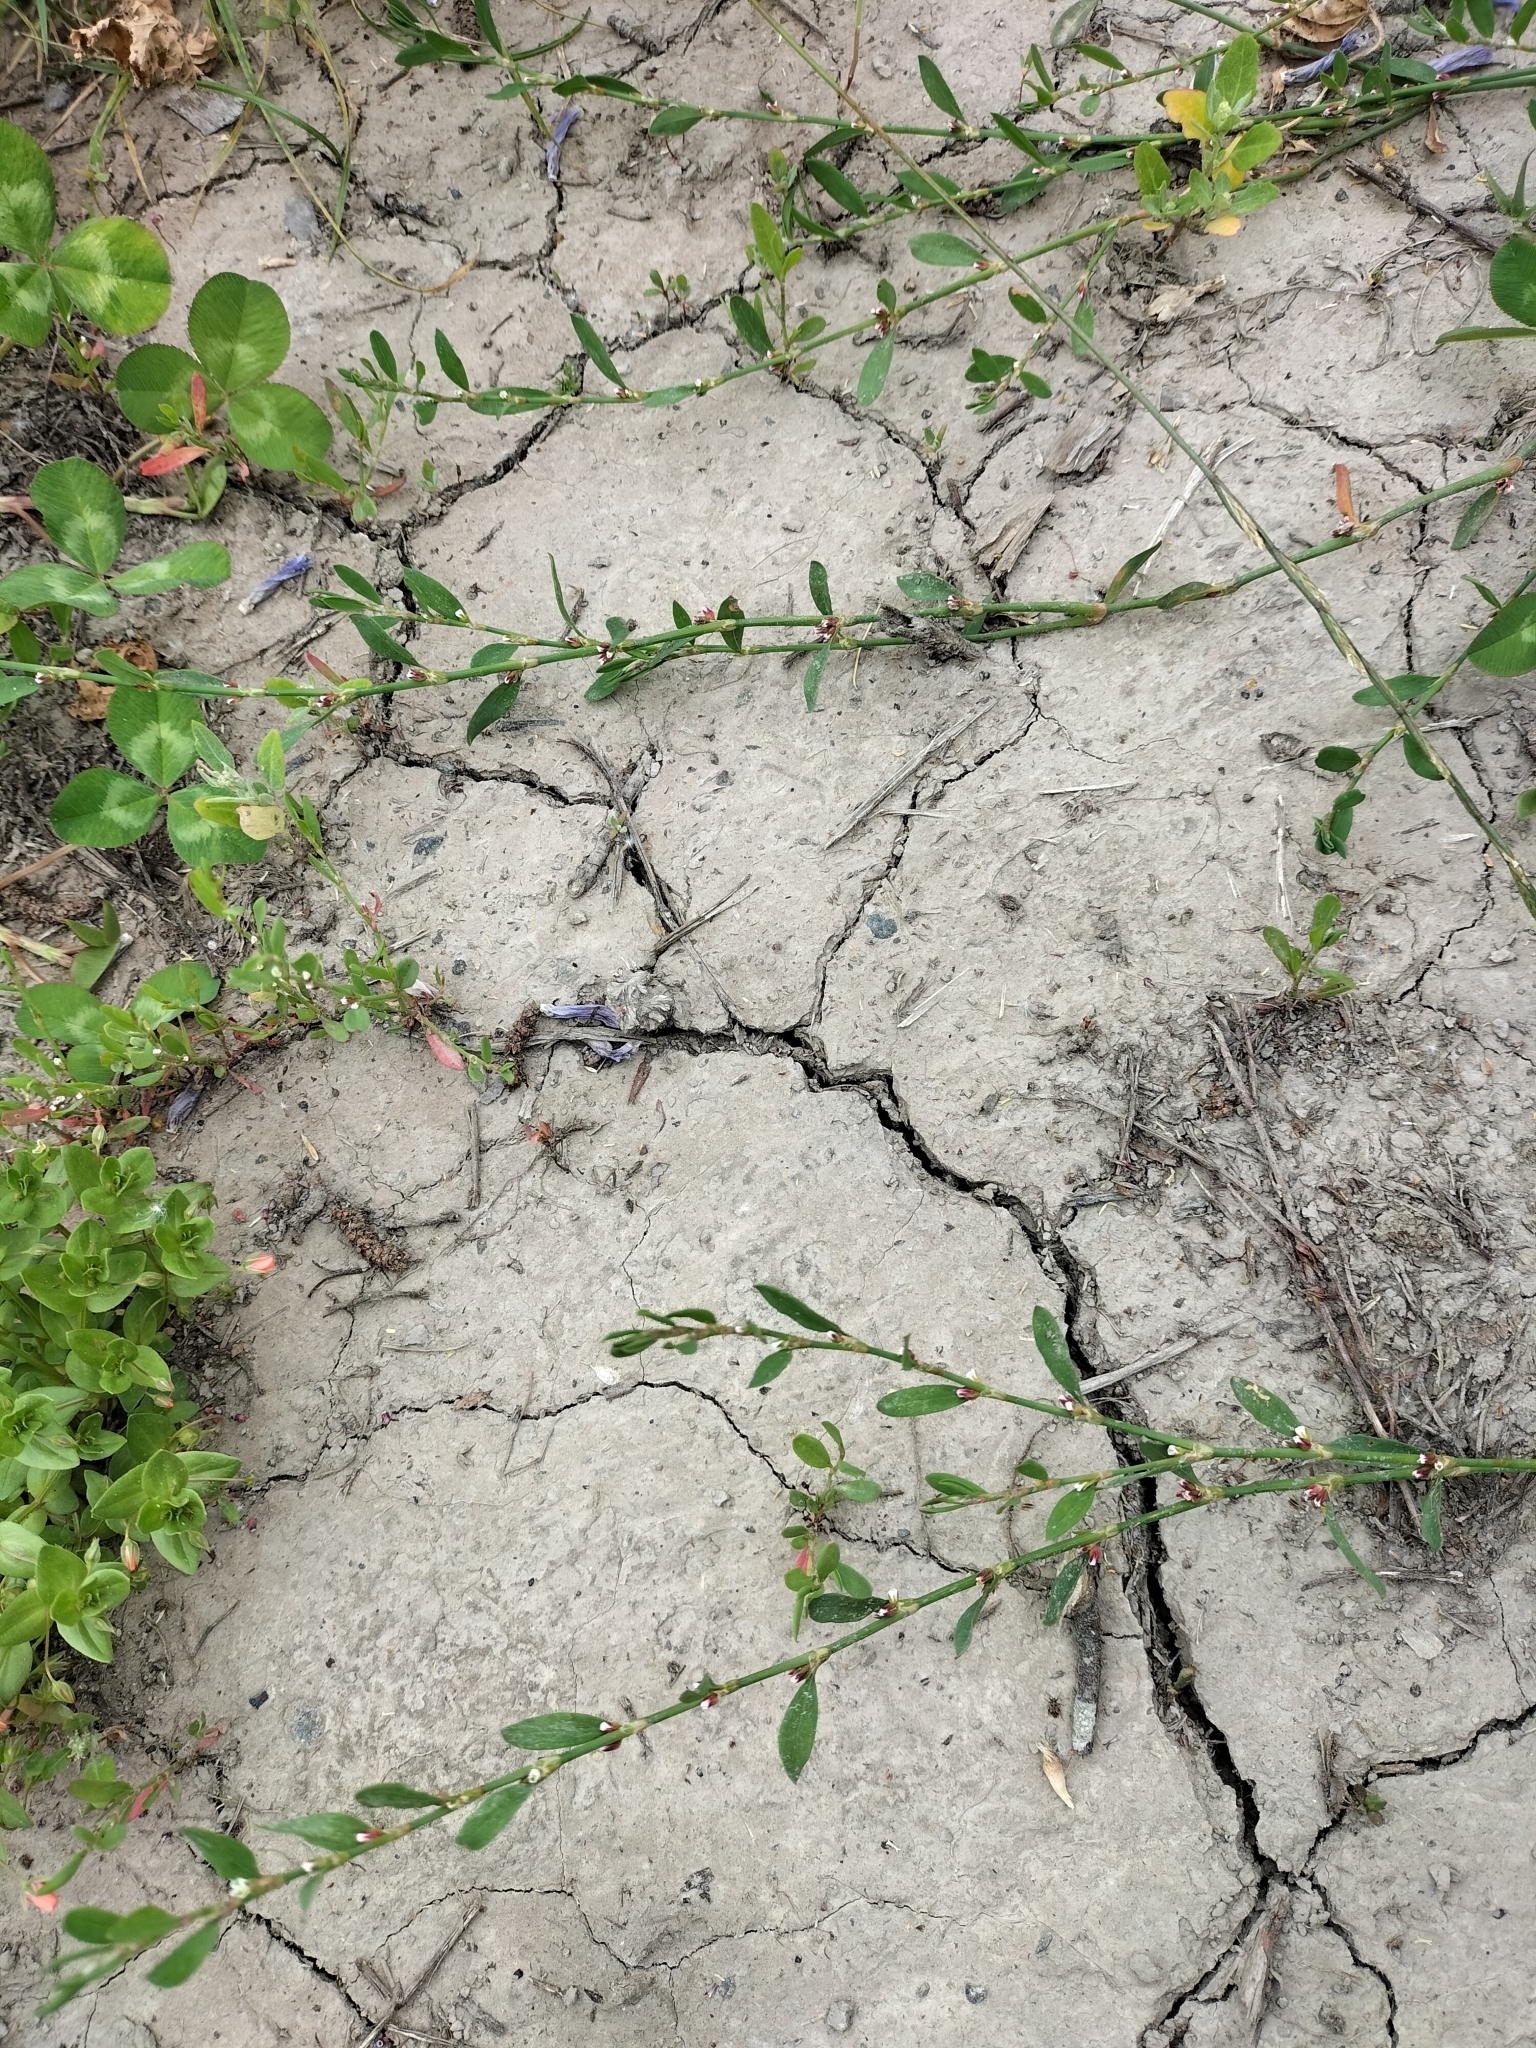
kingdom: Plantae
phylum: Tracheophyta
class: Magnoliopsida
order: Caryophyllales
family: Polygonaceae
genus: Polygonum
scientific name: Polygonum aviculare
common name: Prostrate knotweed
